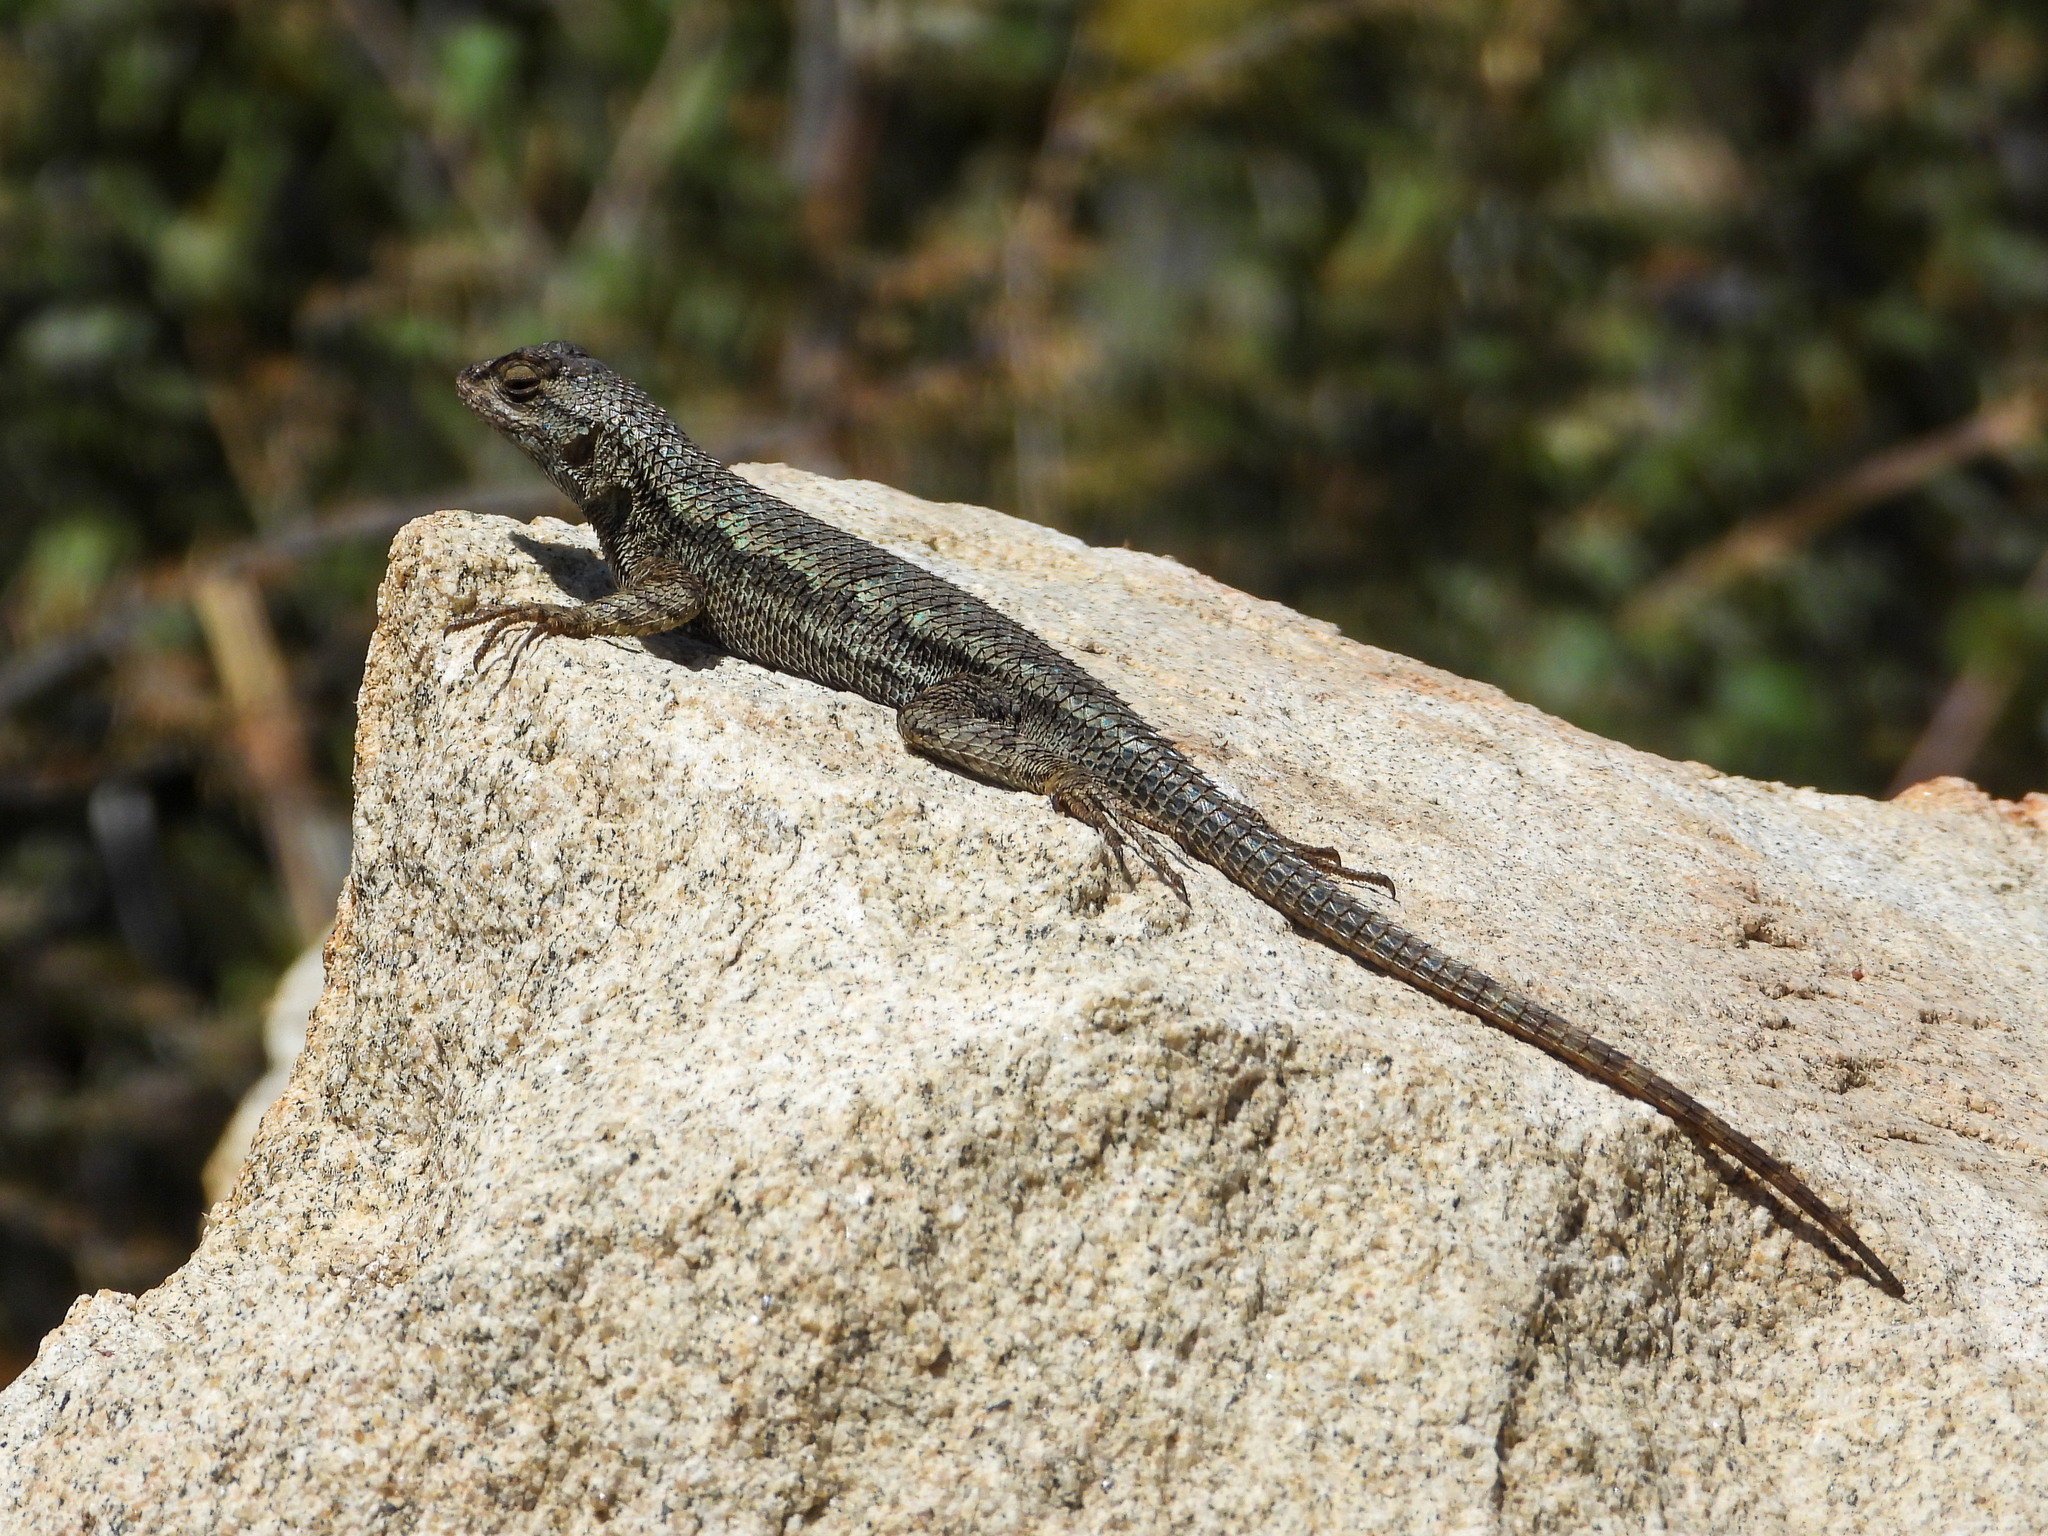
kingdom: Animalia
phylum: Chordata
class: Squamata
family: Phrynosomatidae
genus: Sceloporus
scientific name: Sceloporus occidentalis
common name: Western fence lizard
